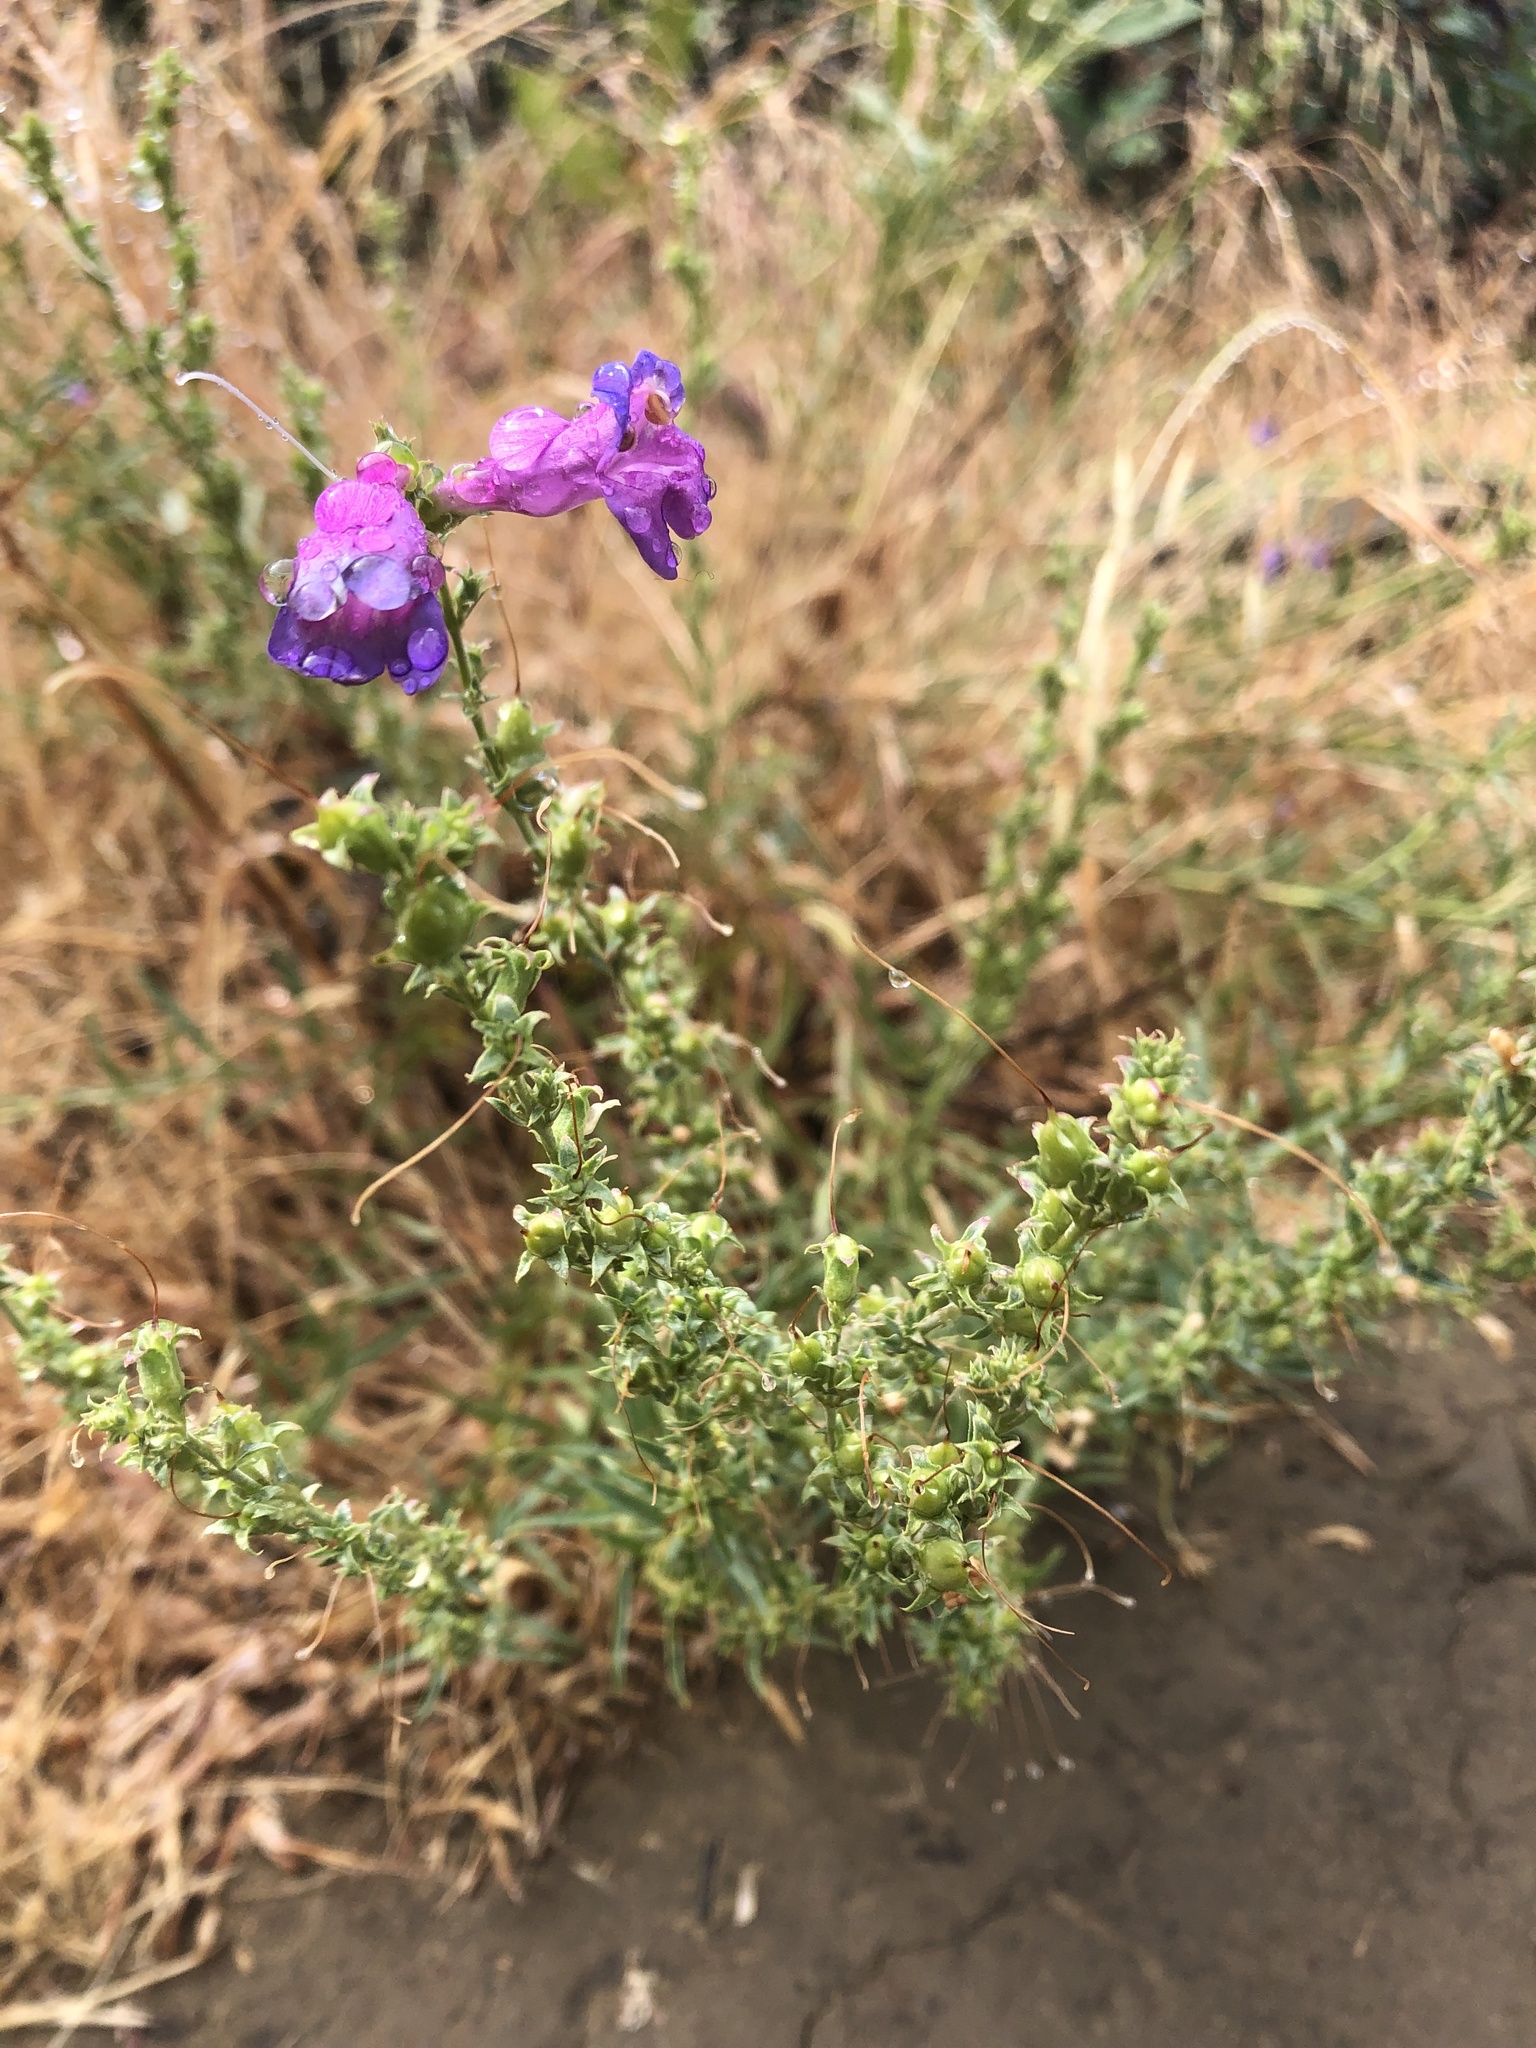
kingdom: Plantae
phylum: Tracheophyta
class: Magnoliopsida
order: Lamiales
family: Plantaginaceae
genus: Penstemon
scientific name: Penstemon heterophyllus
